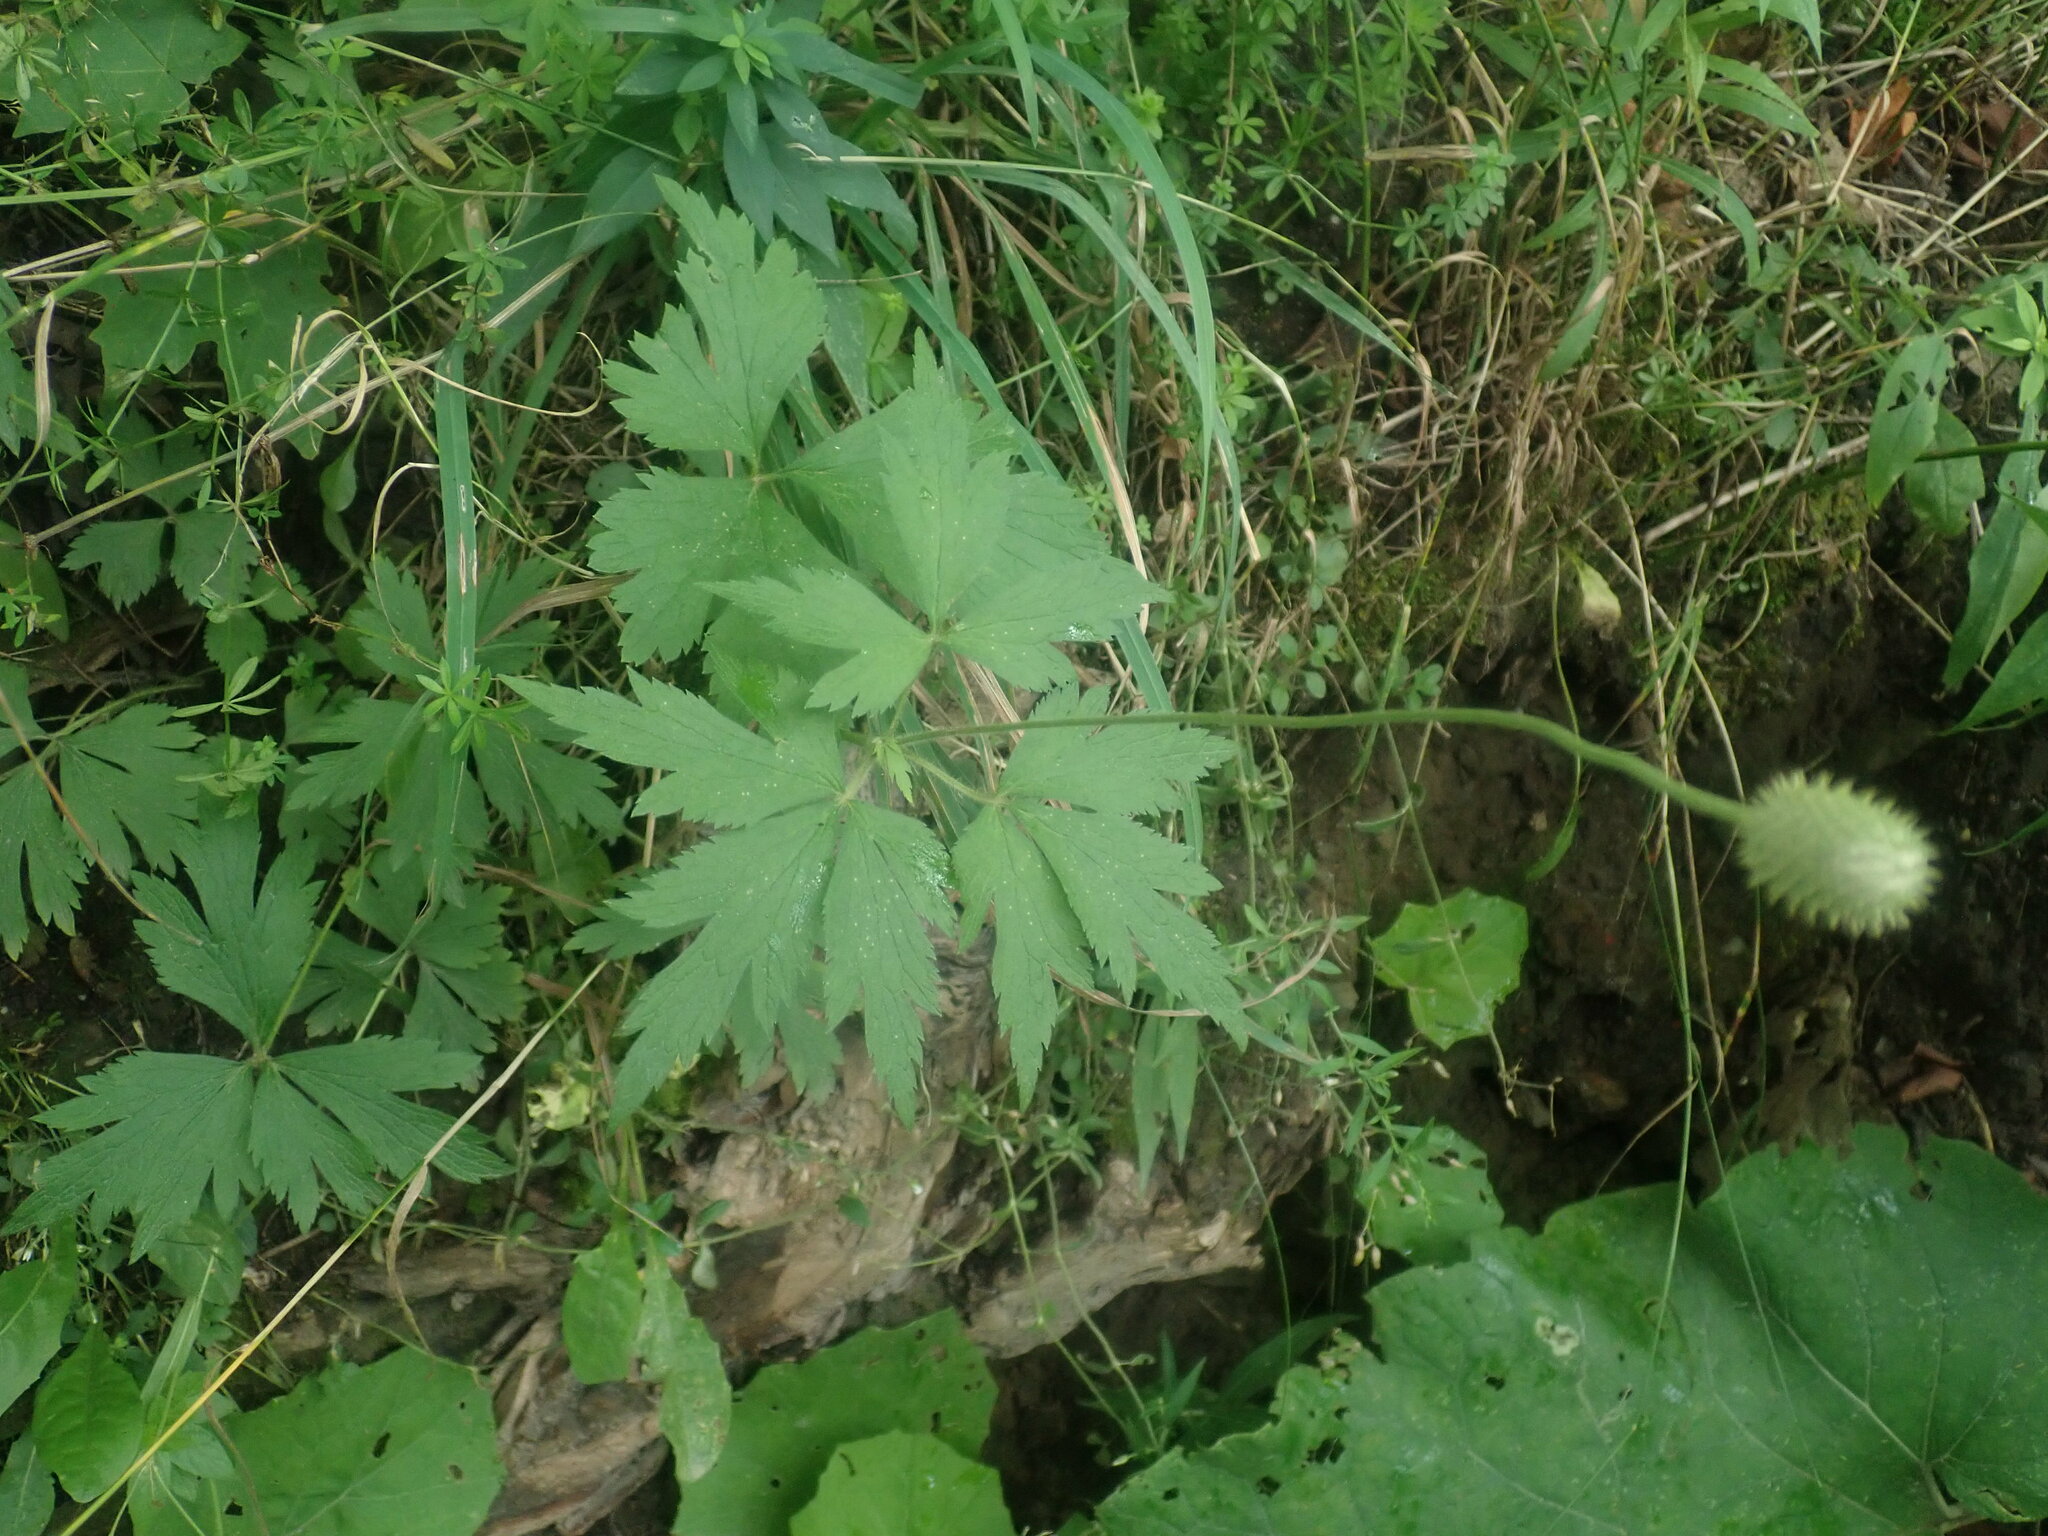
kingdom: Plantae
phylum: Tracheophyta
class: Magnoliopsida
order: Ranunculales
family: Ranunculaceae
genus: Anemone
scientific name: Anemone virginiana
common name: Tall anemone
